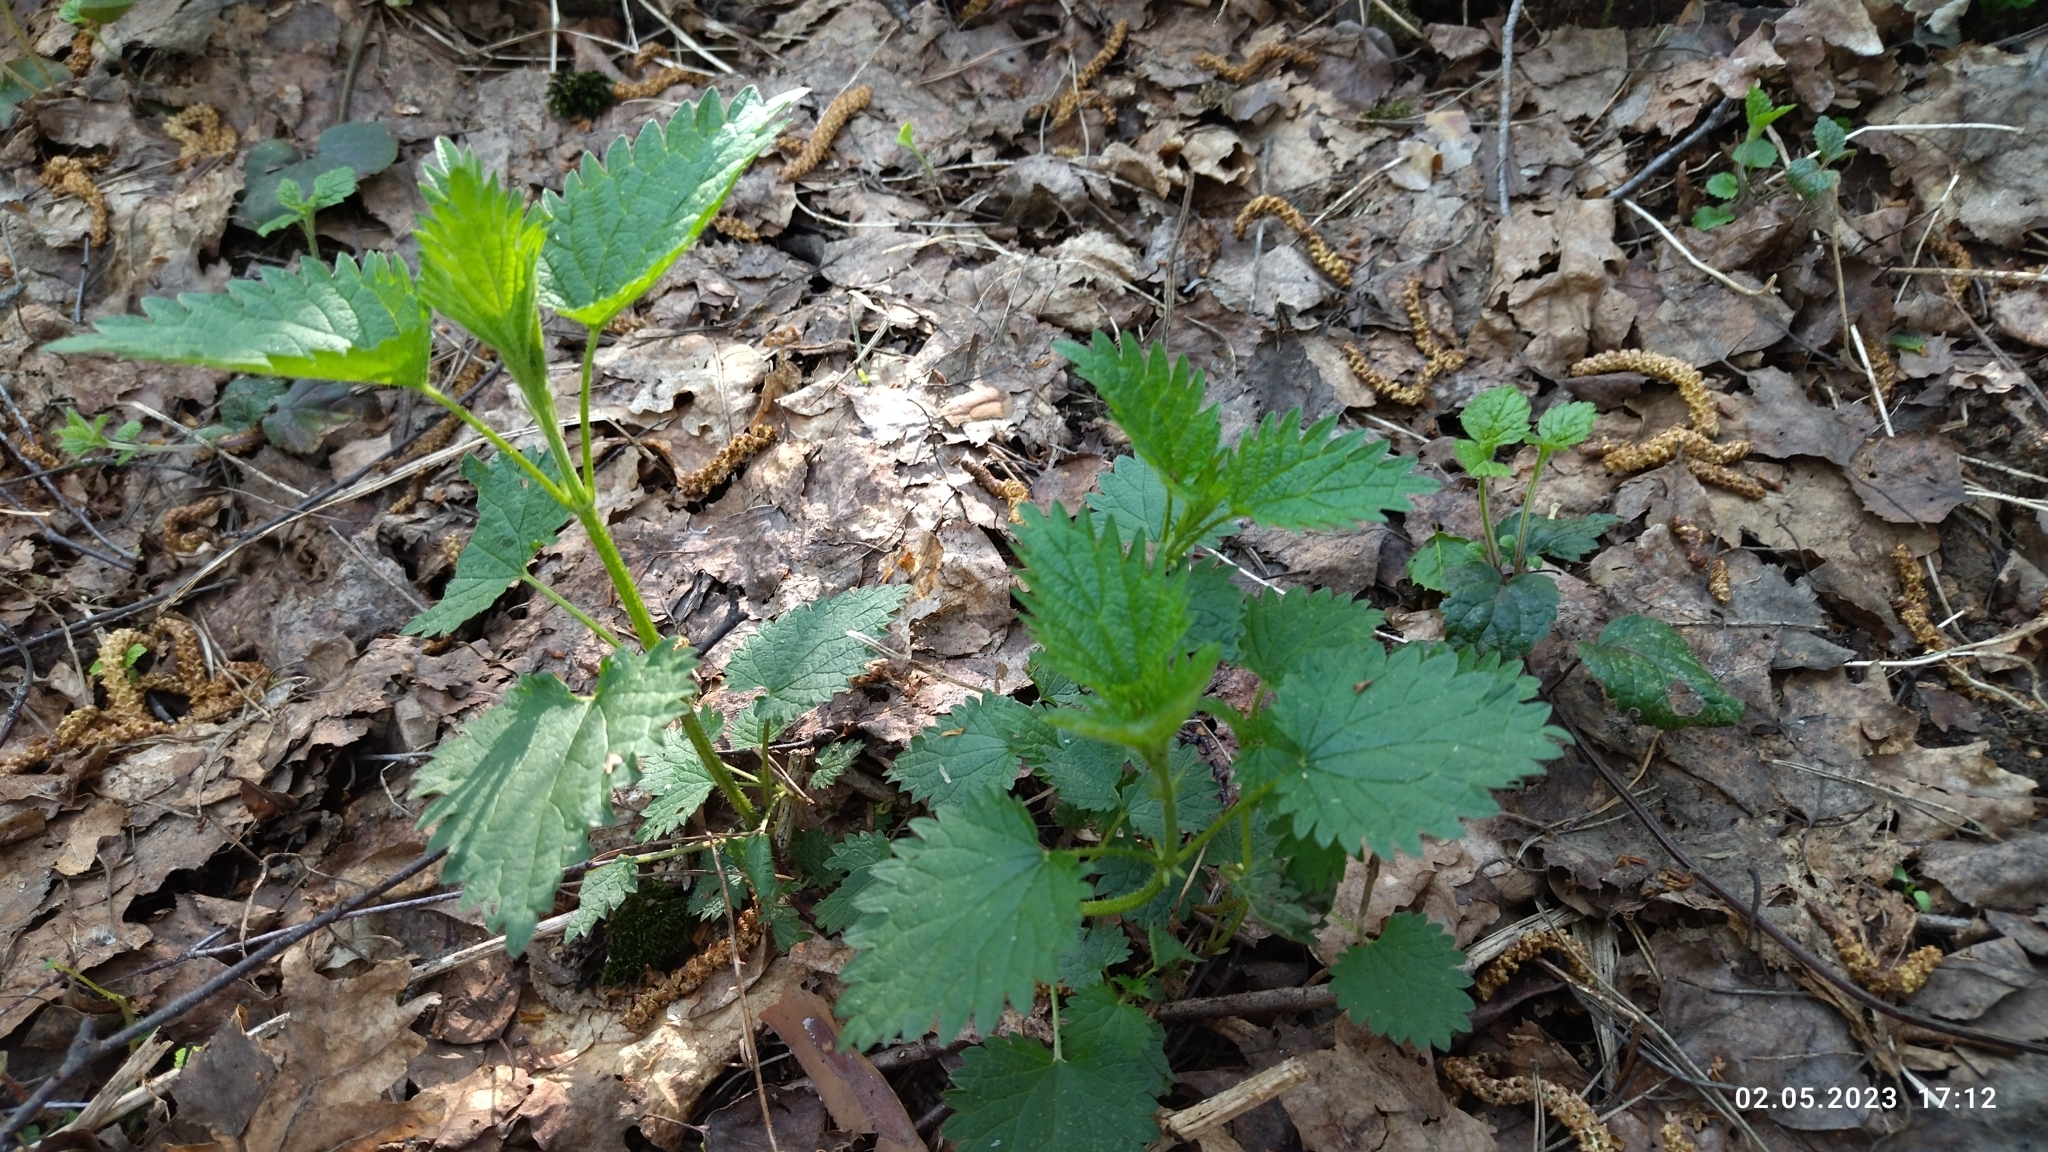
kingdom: Plantae
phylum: Tracheophyta
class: Magnoliopsida
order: Rosales
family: Urticaceae
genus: Urtica
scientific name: Urtica dioica
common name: Common nettle
